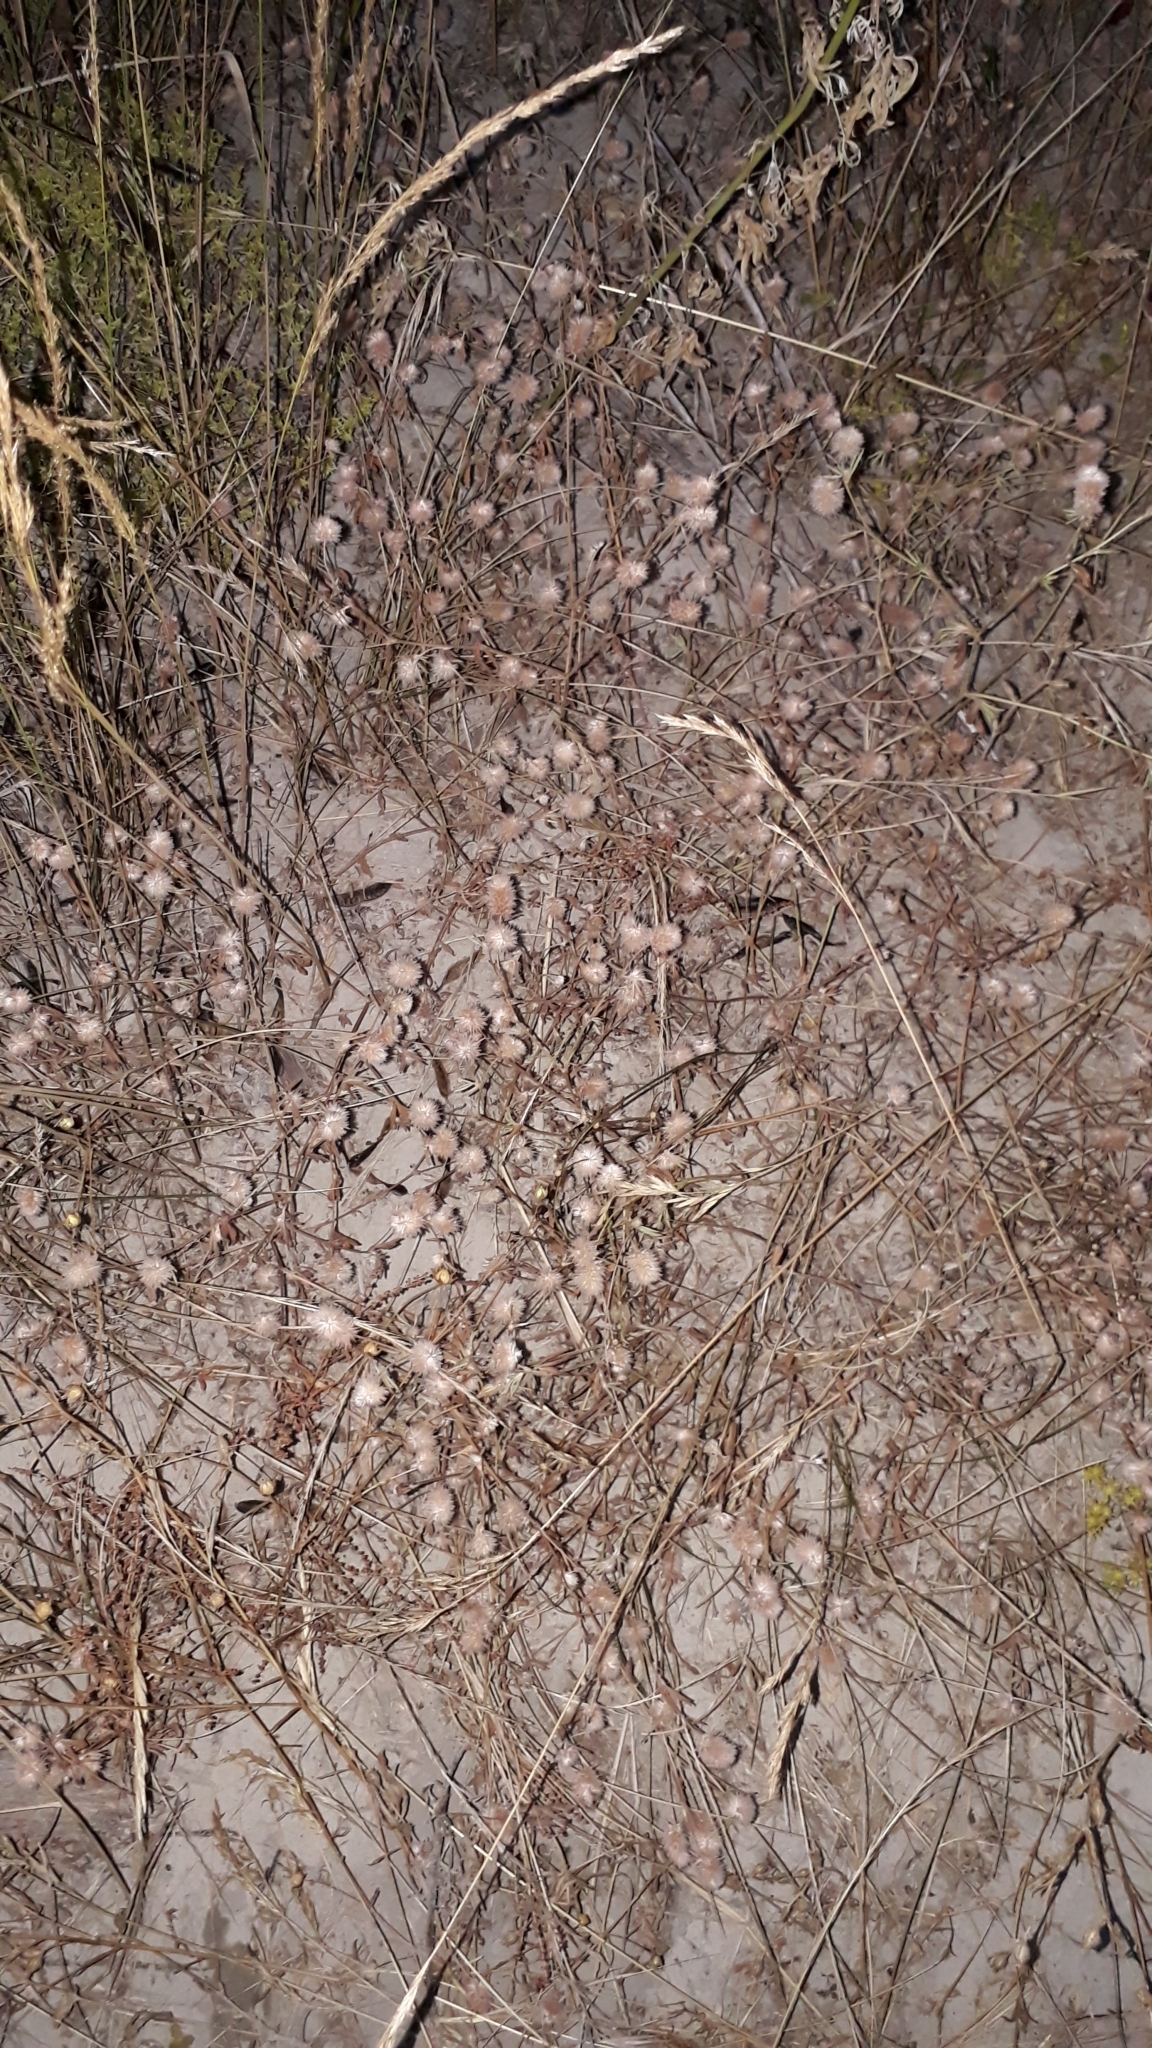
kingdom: Plantae
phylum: Tracheophyta
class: Magnoliopsida
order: Fabales
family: Fabaceae
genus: Trifolium
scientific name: Trifolium arvense
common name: Hare's-foot clover
